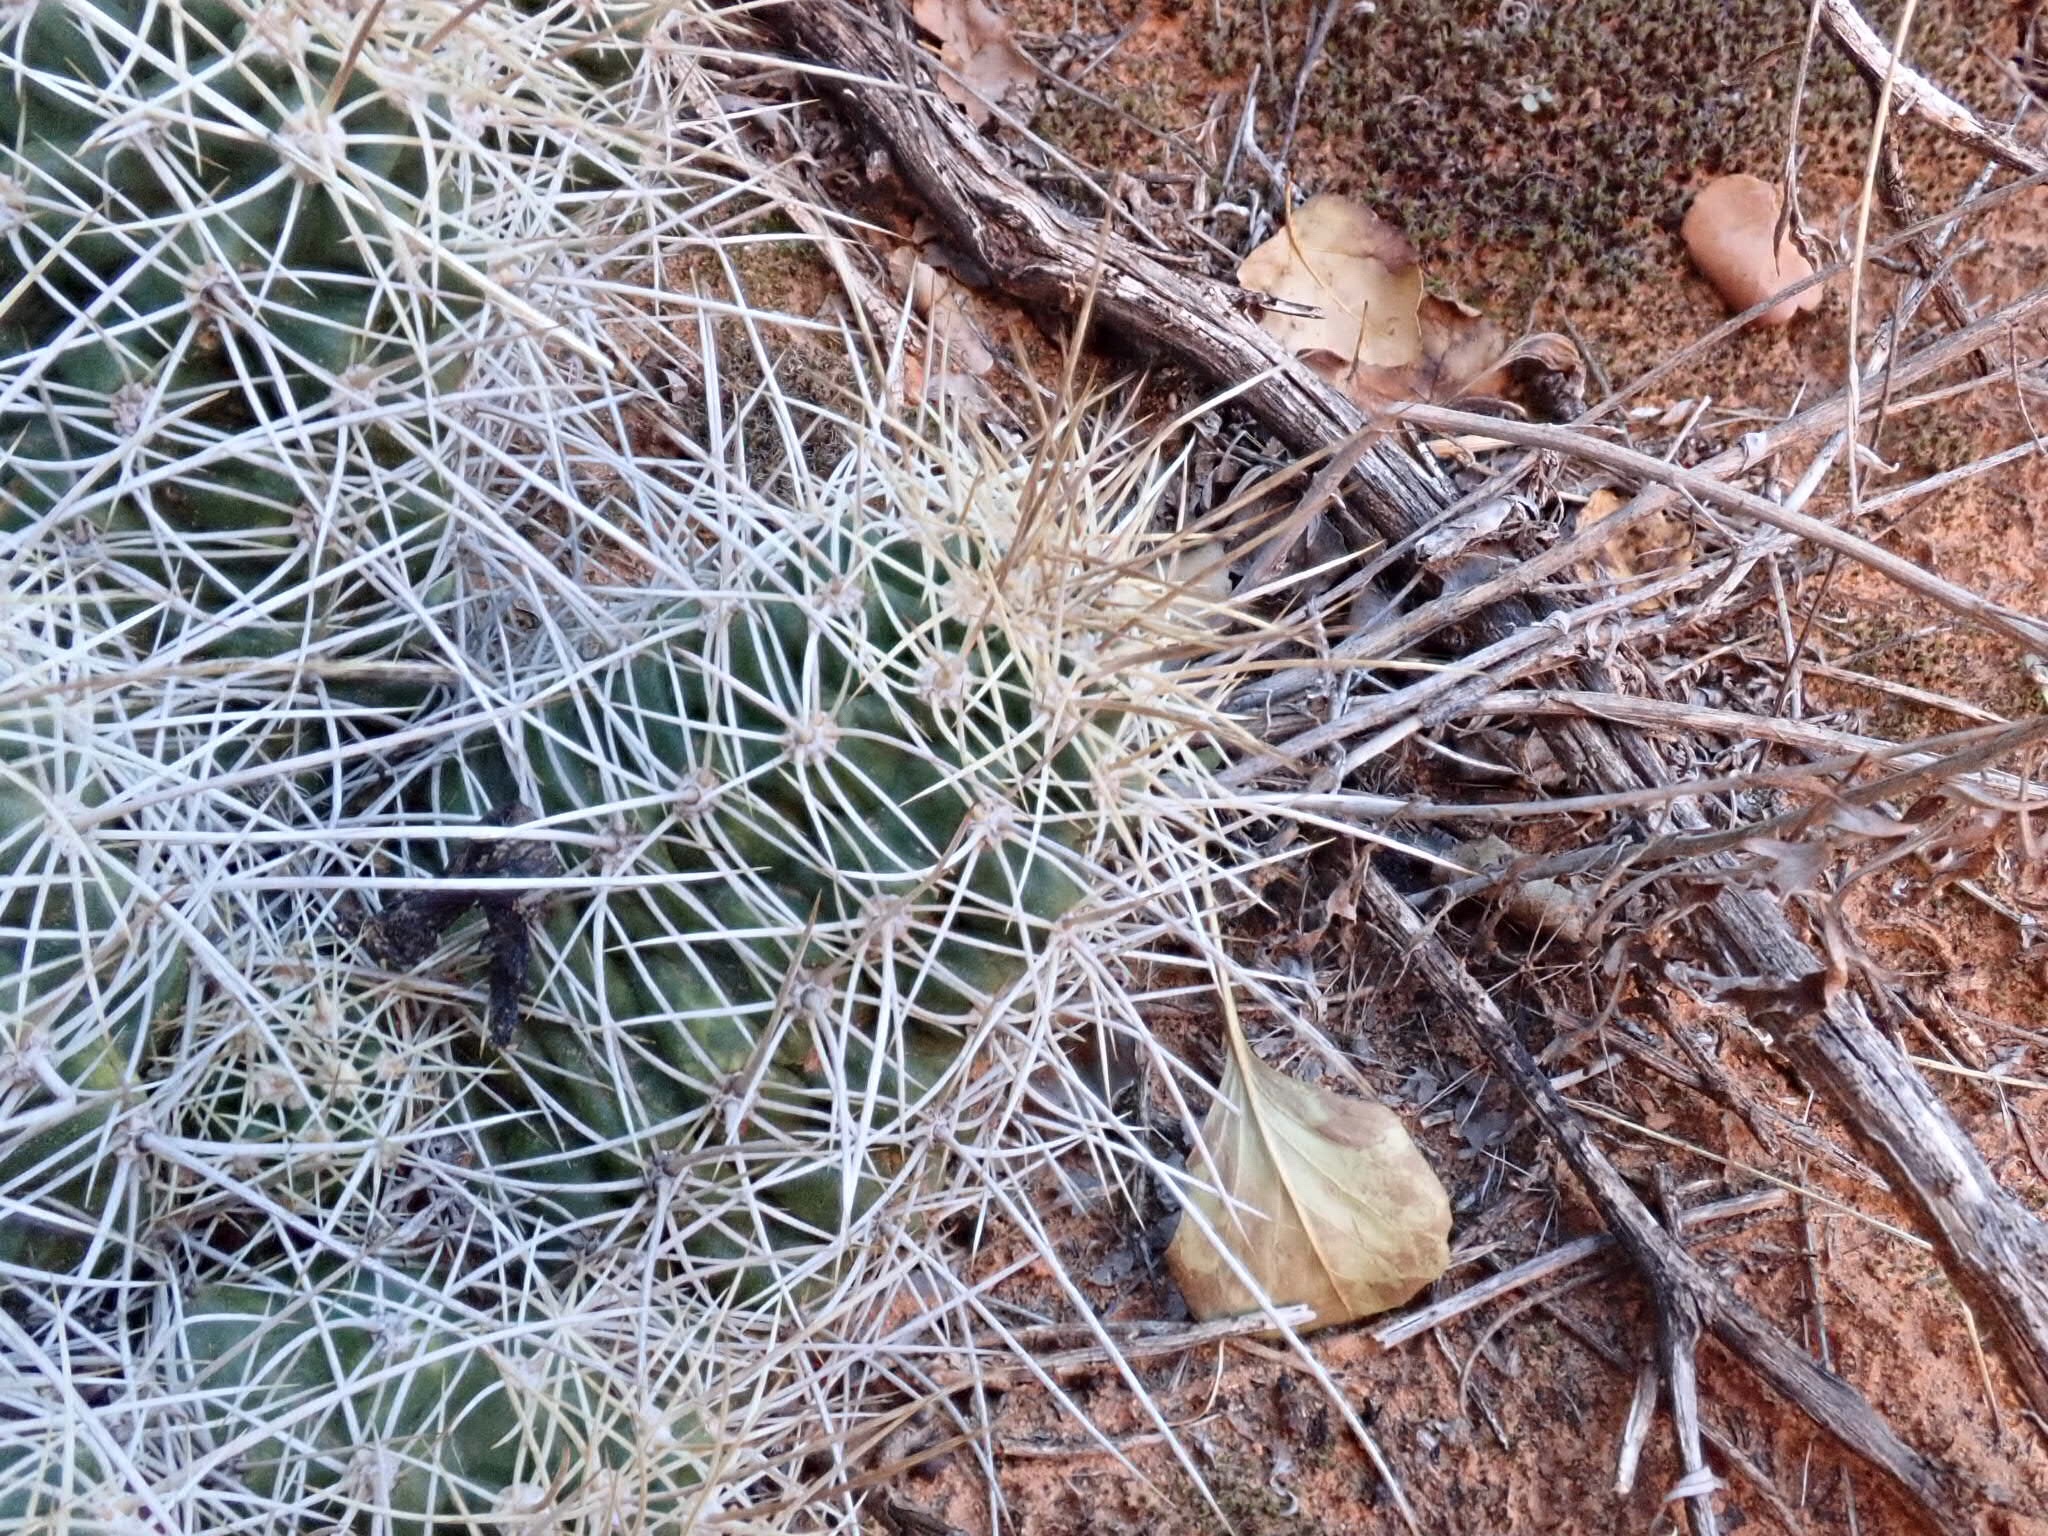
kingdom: Plantae
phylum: Tracheophyta
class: Magnoliopsida
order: Caryophyllales
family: Cactaceae
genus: Echinocereus
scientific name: Echinocereus triglochidiatus
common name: Claretcup hedgehog
